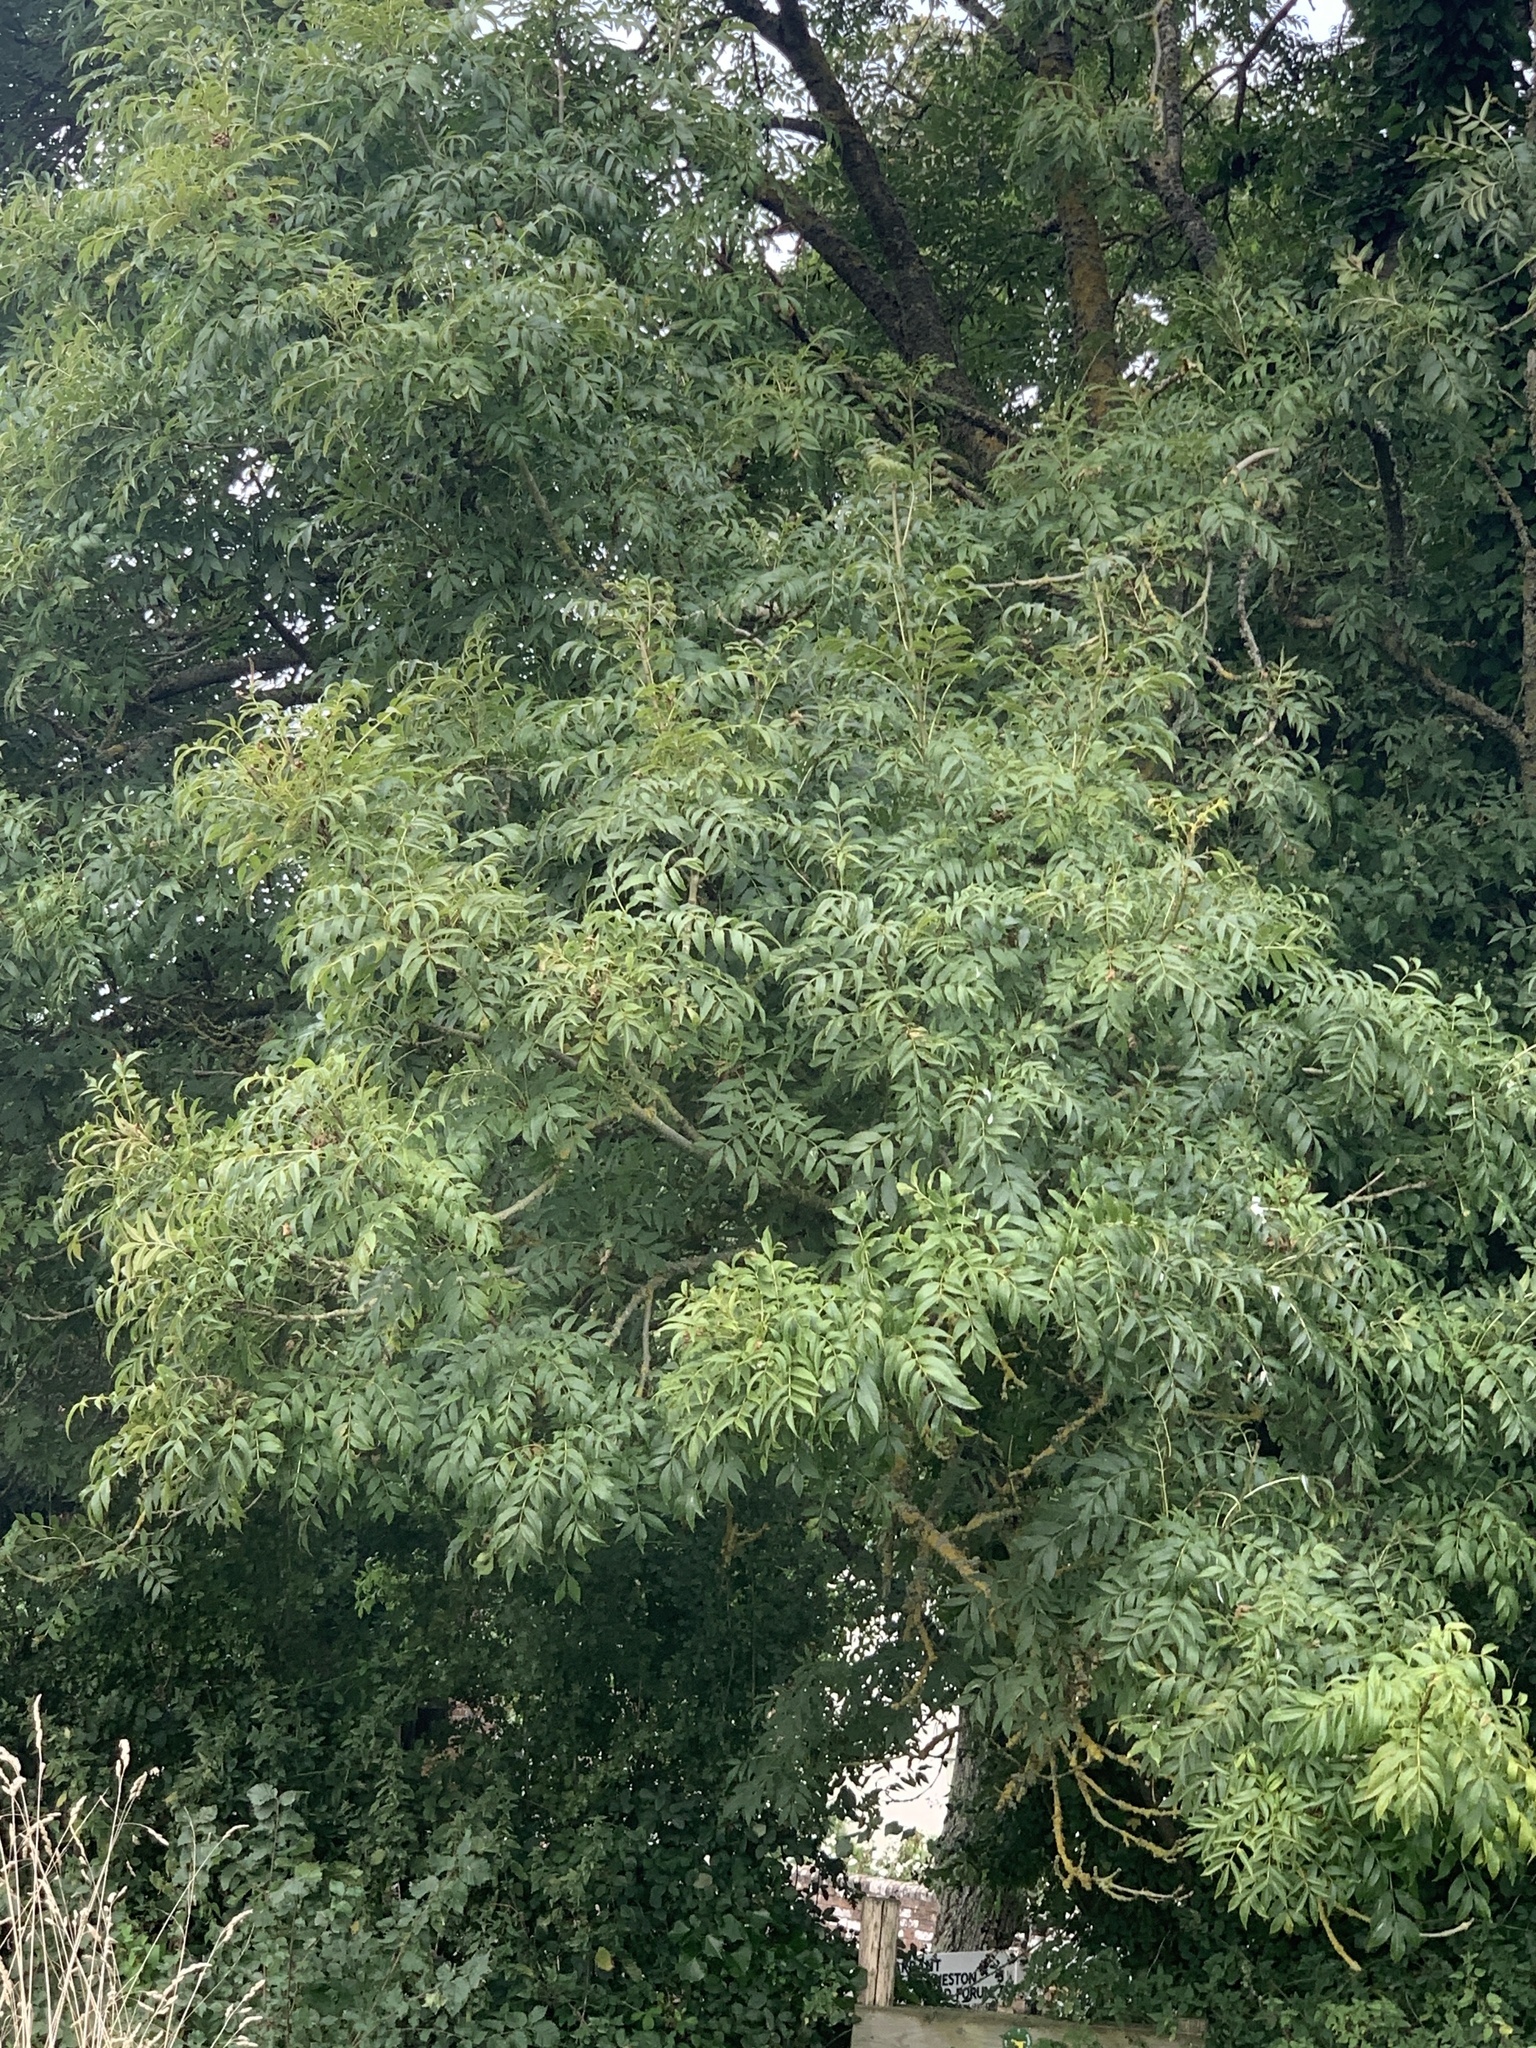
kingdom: Plantae
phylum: Tracheophyta
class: Magnoliopsida
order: Lamiales
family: Oleaceae
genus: Fraxinus
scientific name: Fraxinus excelsior
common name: European ash
